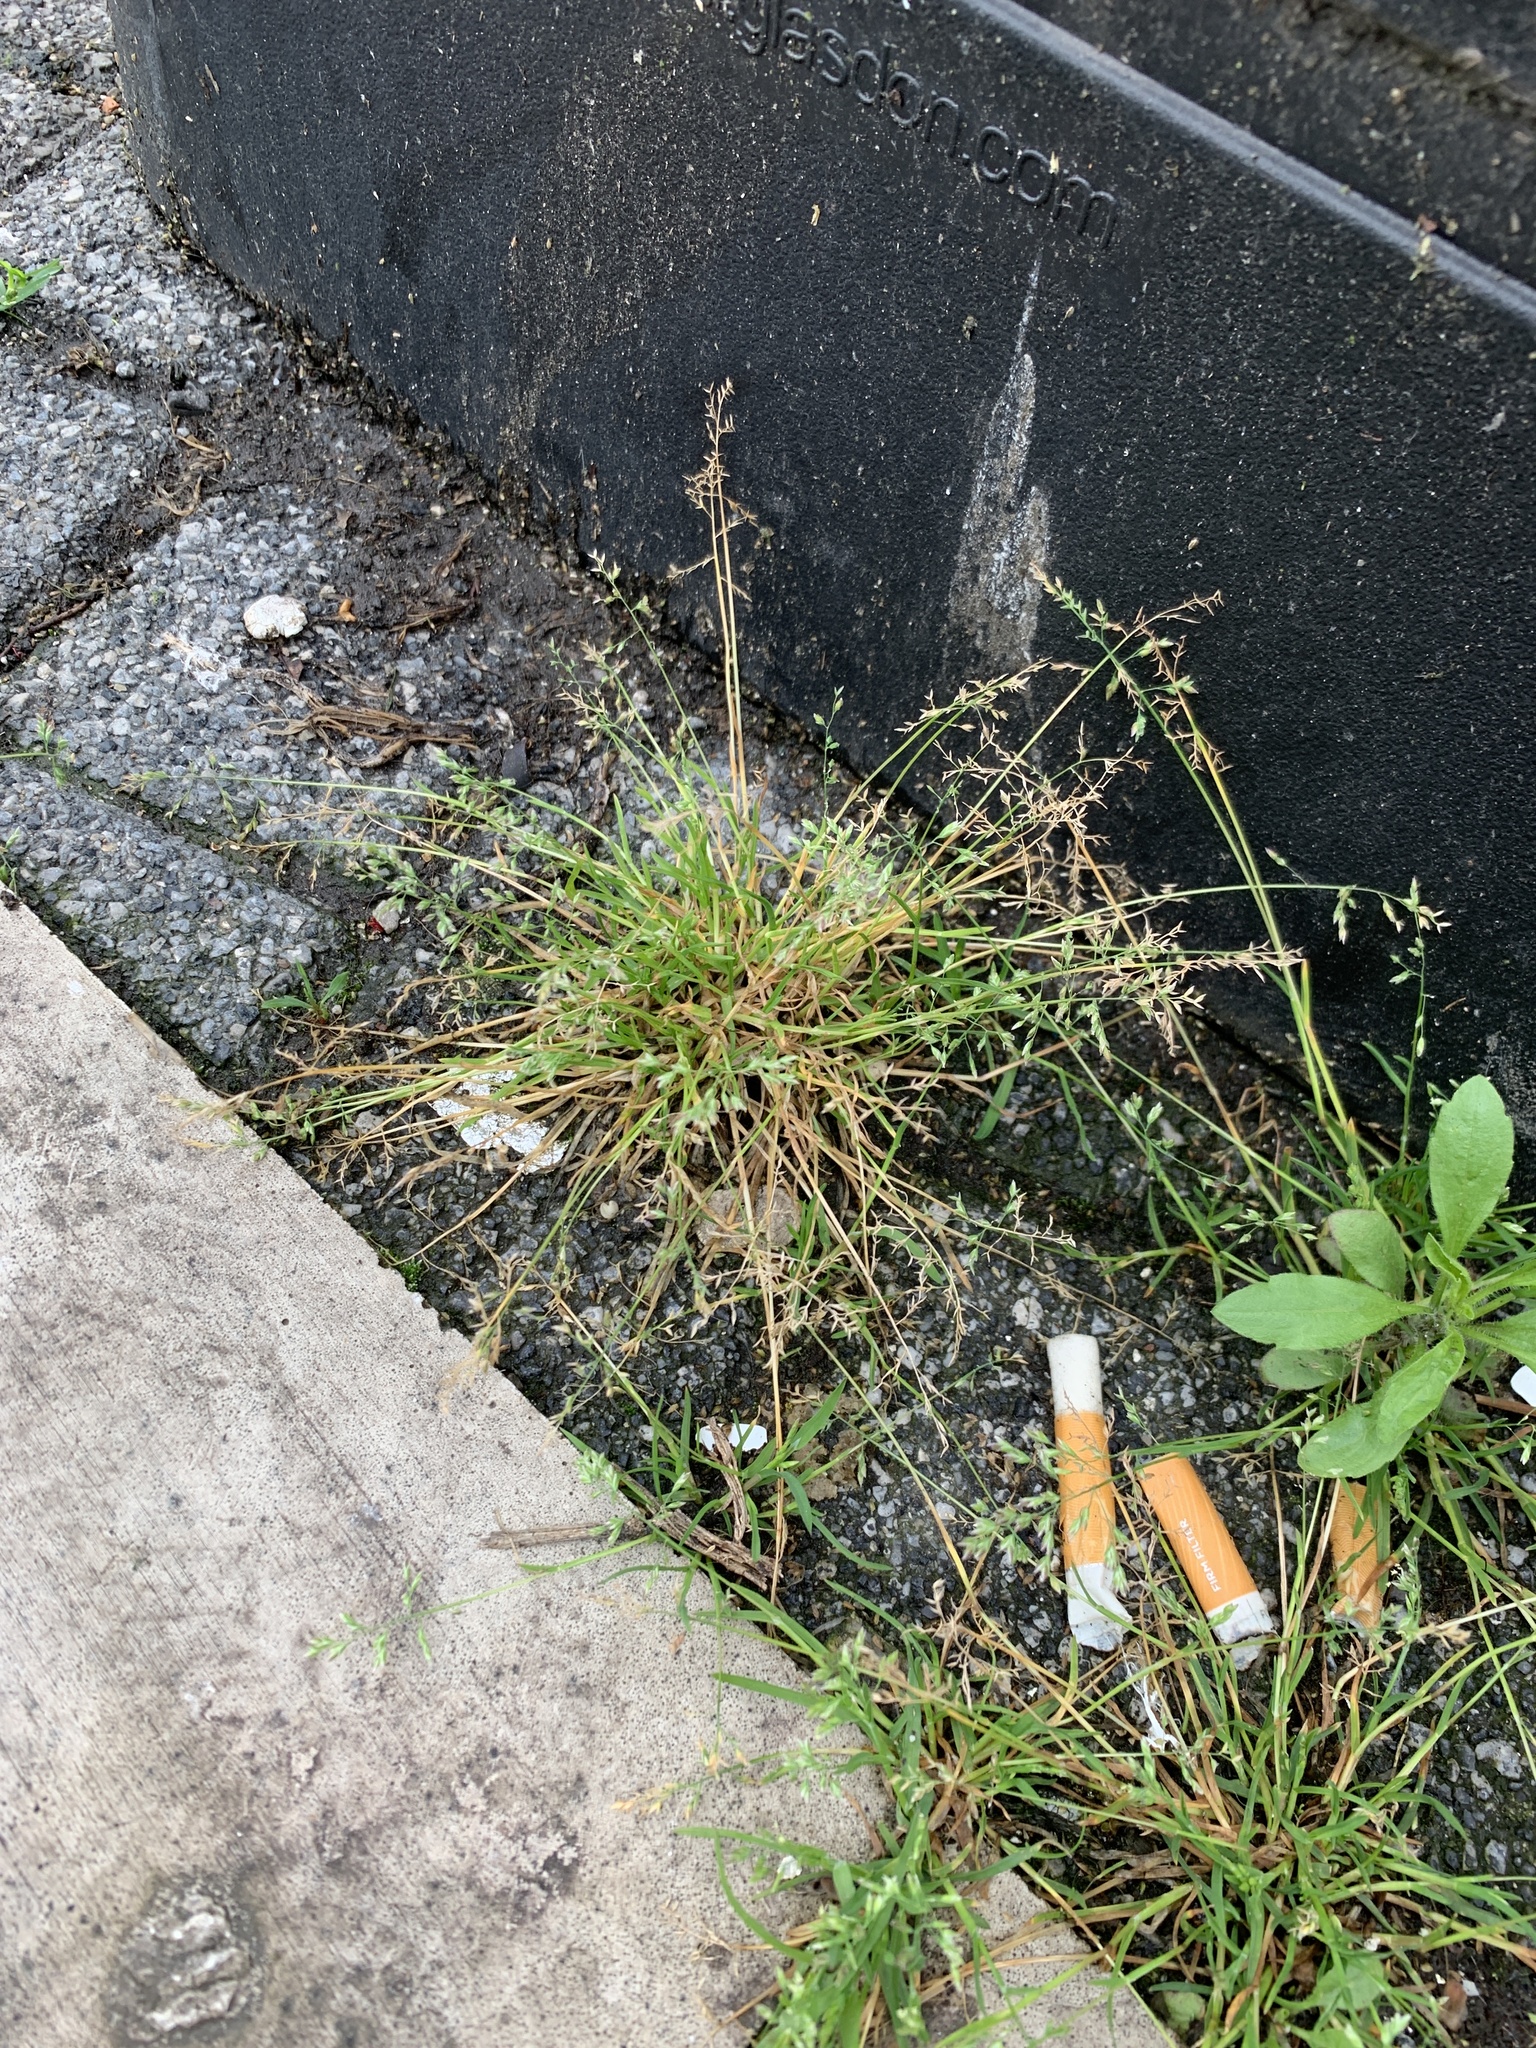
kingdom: Plantae
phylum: Tracheophyta
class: Liliopsida
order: Poales
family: Poaceae
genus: Poa
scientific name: Poa annua
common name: Annual bluegrass
